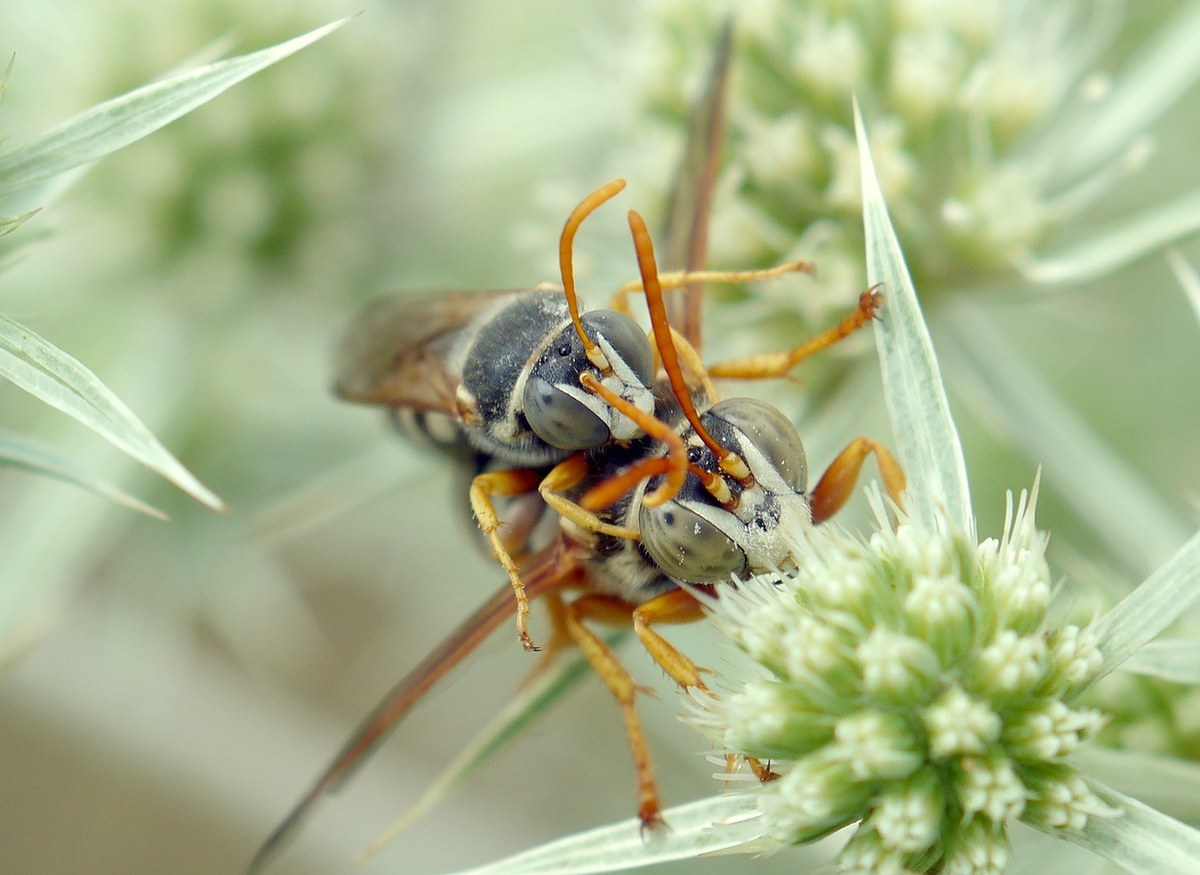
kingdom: Animalia
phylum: Arthropoda
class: Insecta
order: Hymenoptera
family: Crabronidae
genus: Stizus
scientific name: Stizus bipunctatus
